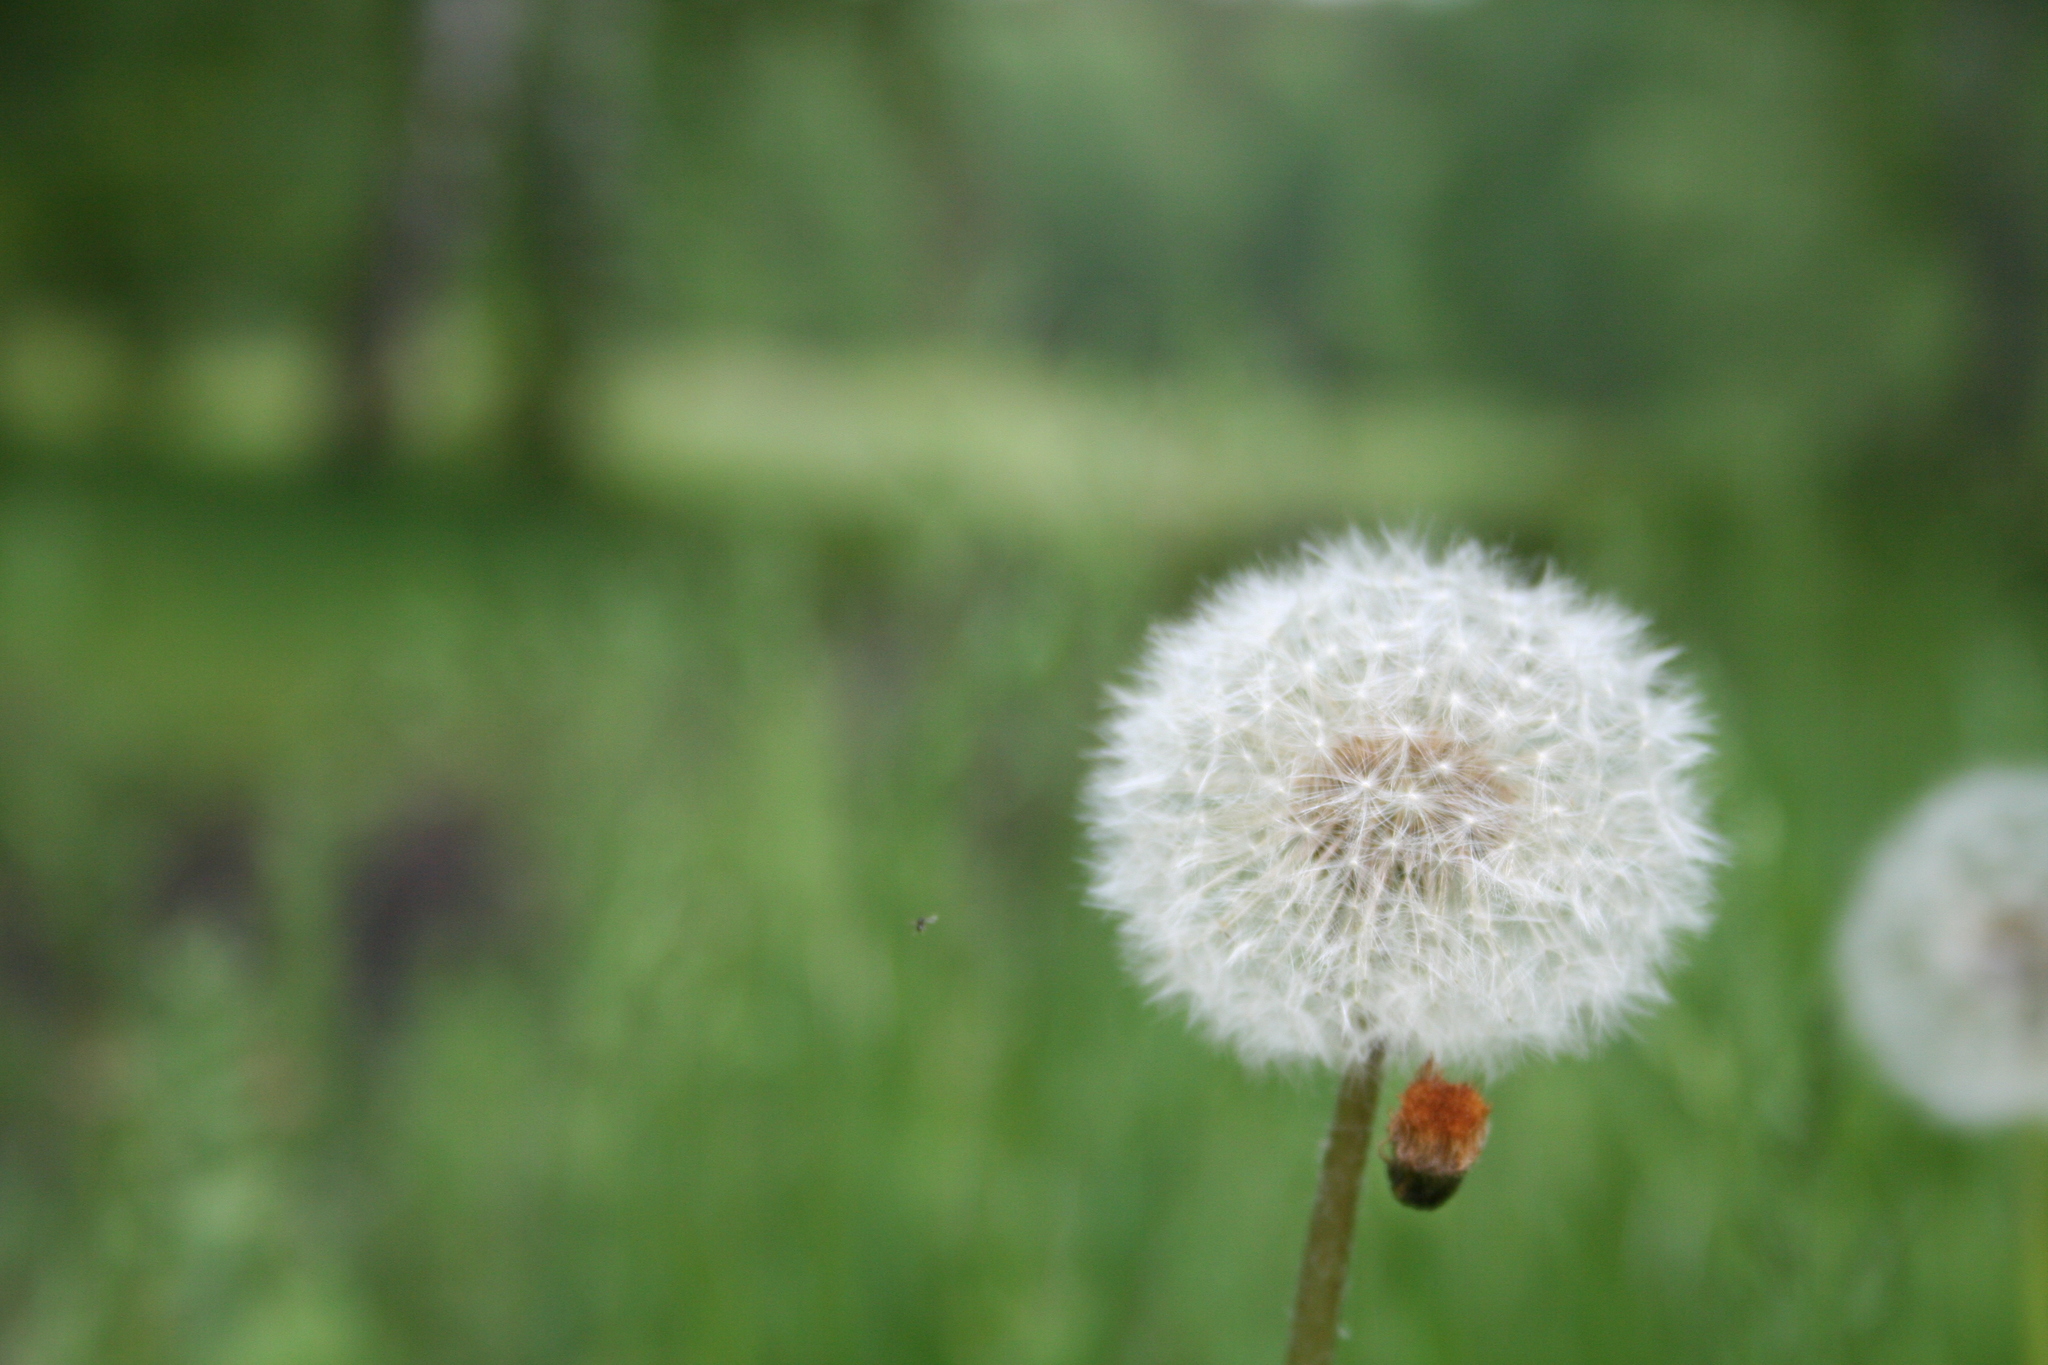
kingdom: Plantae
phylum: Tracheophyta
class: Magnoliopsida
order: Asterales
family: Asteraceae
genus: Taraxacum
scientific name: Taraxacum officinale
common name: Common dandelion
